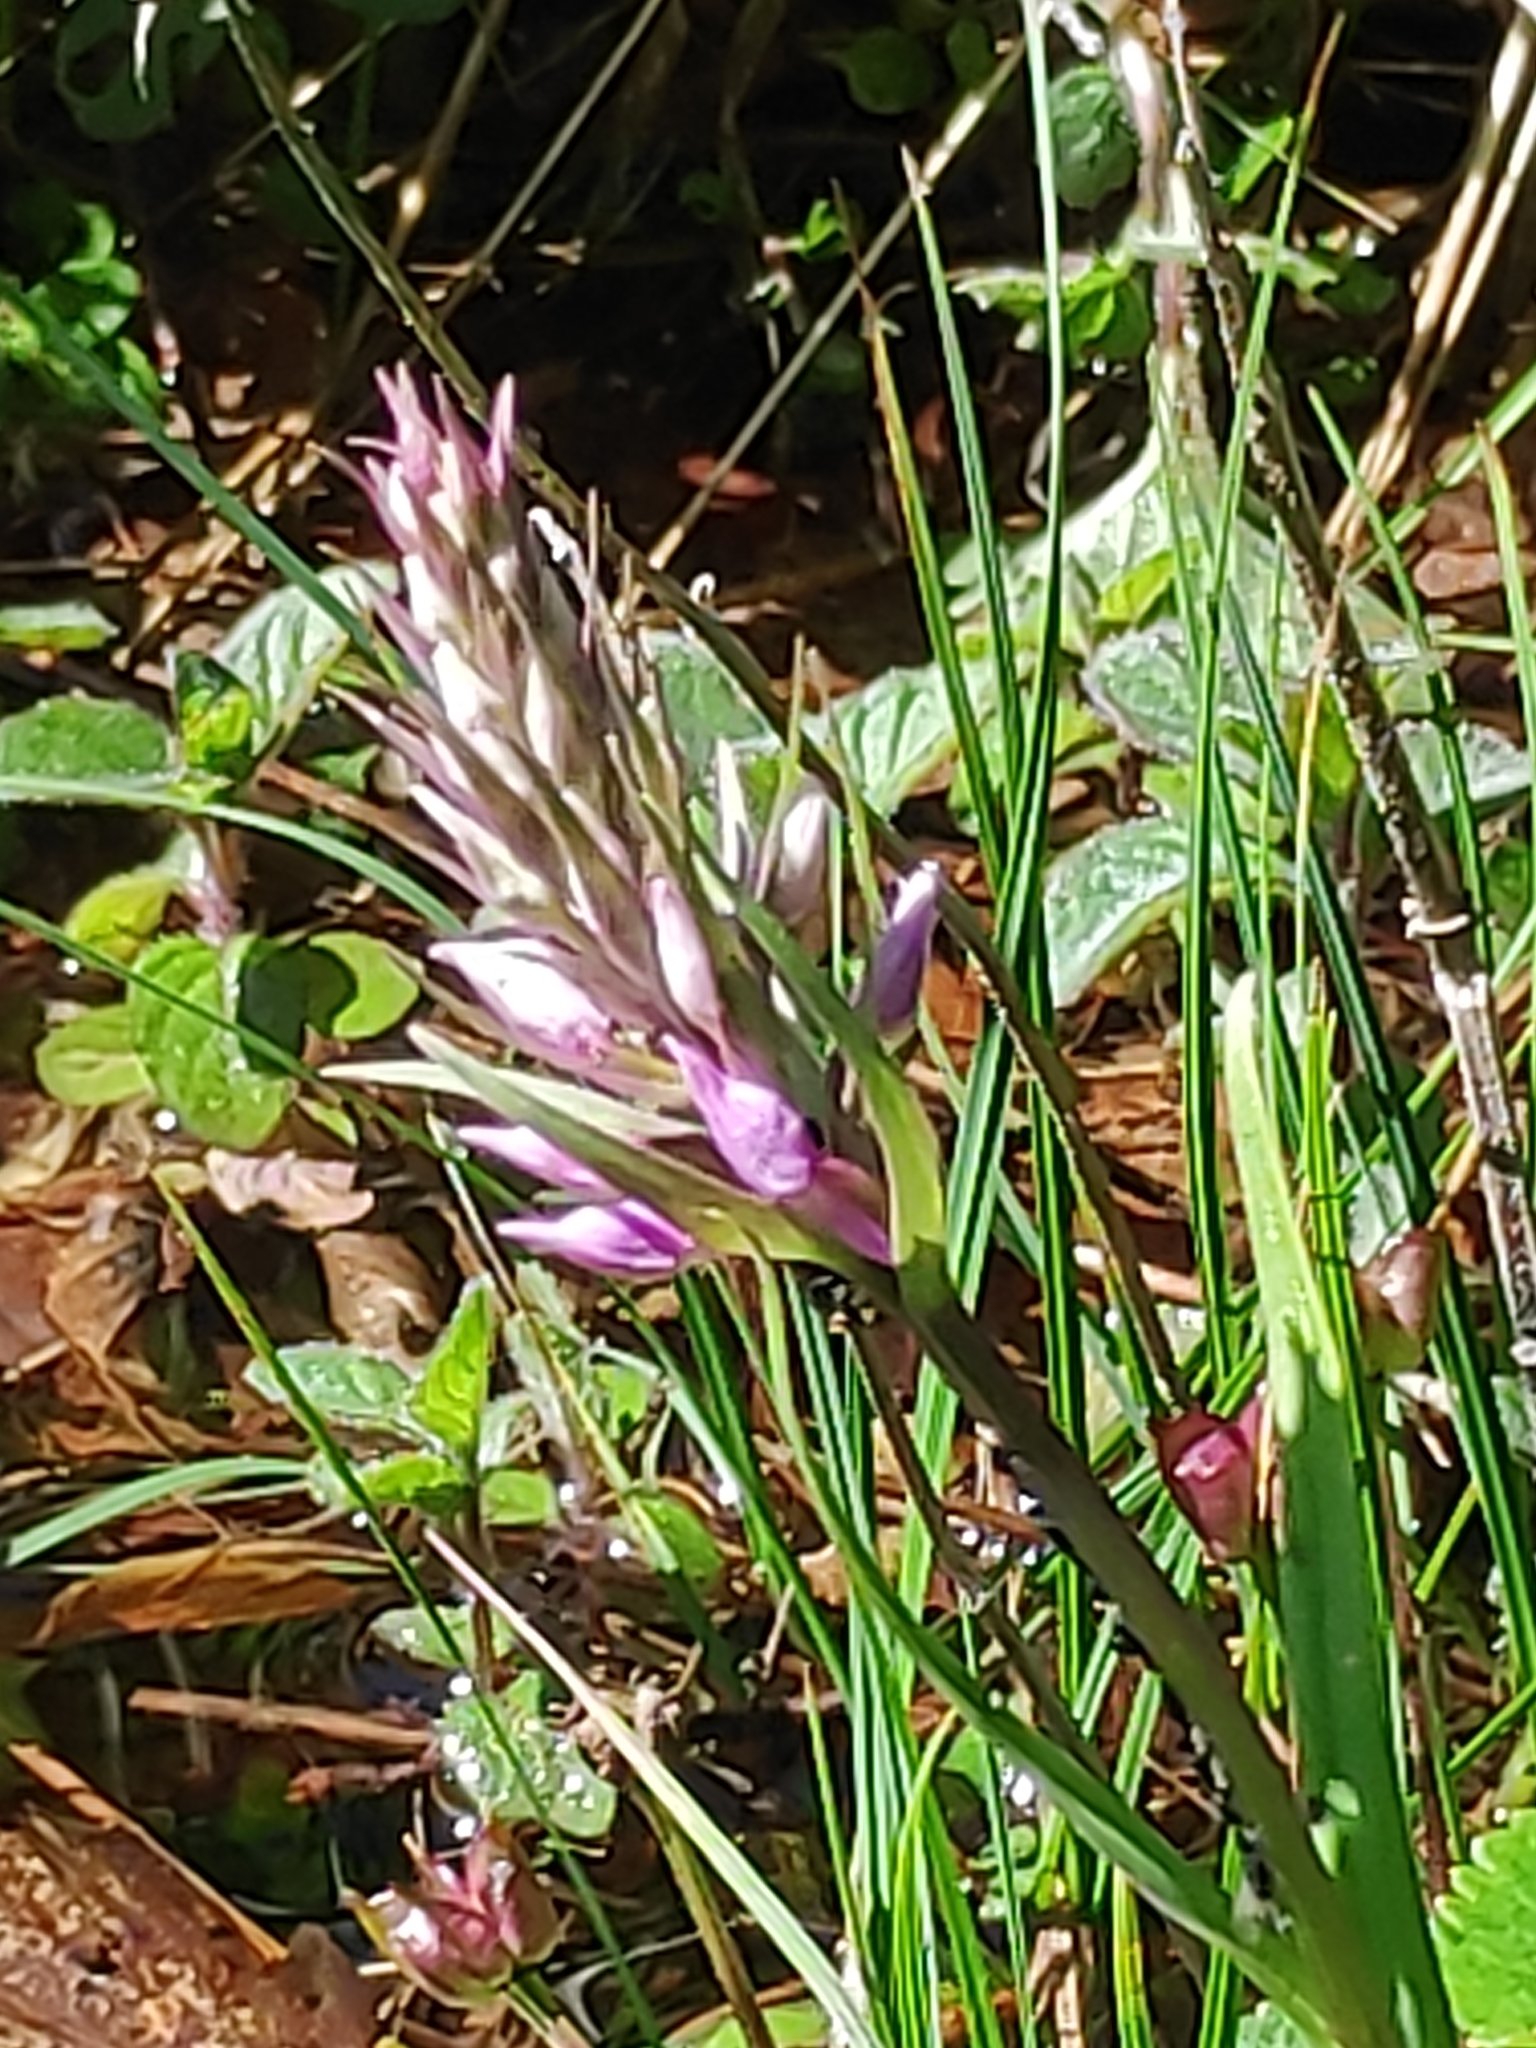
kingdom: Plantae
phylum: Tracheophyta
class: Liliopsida
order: Asparagales
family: Orchidaceae
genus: Dactylorhiza
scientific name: Dactylorhiza majalis
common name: Marsh orchid
